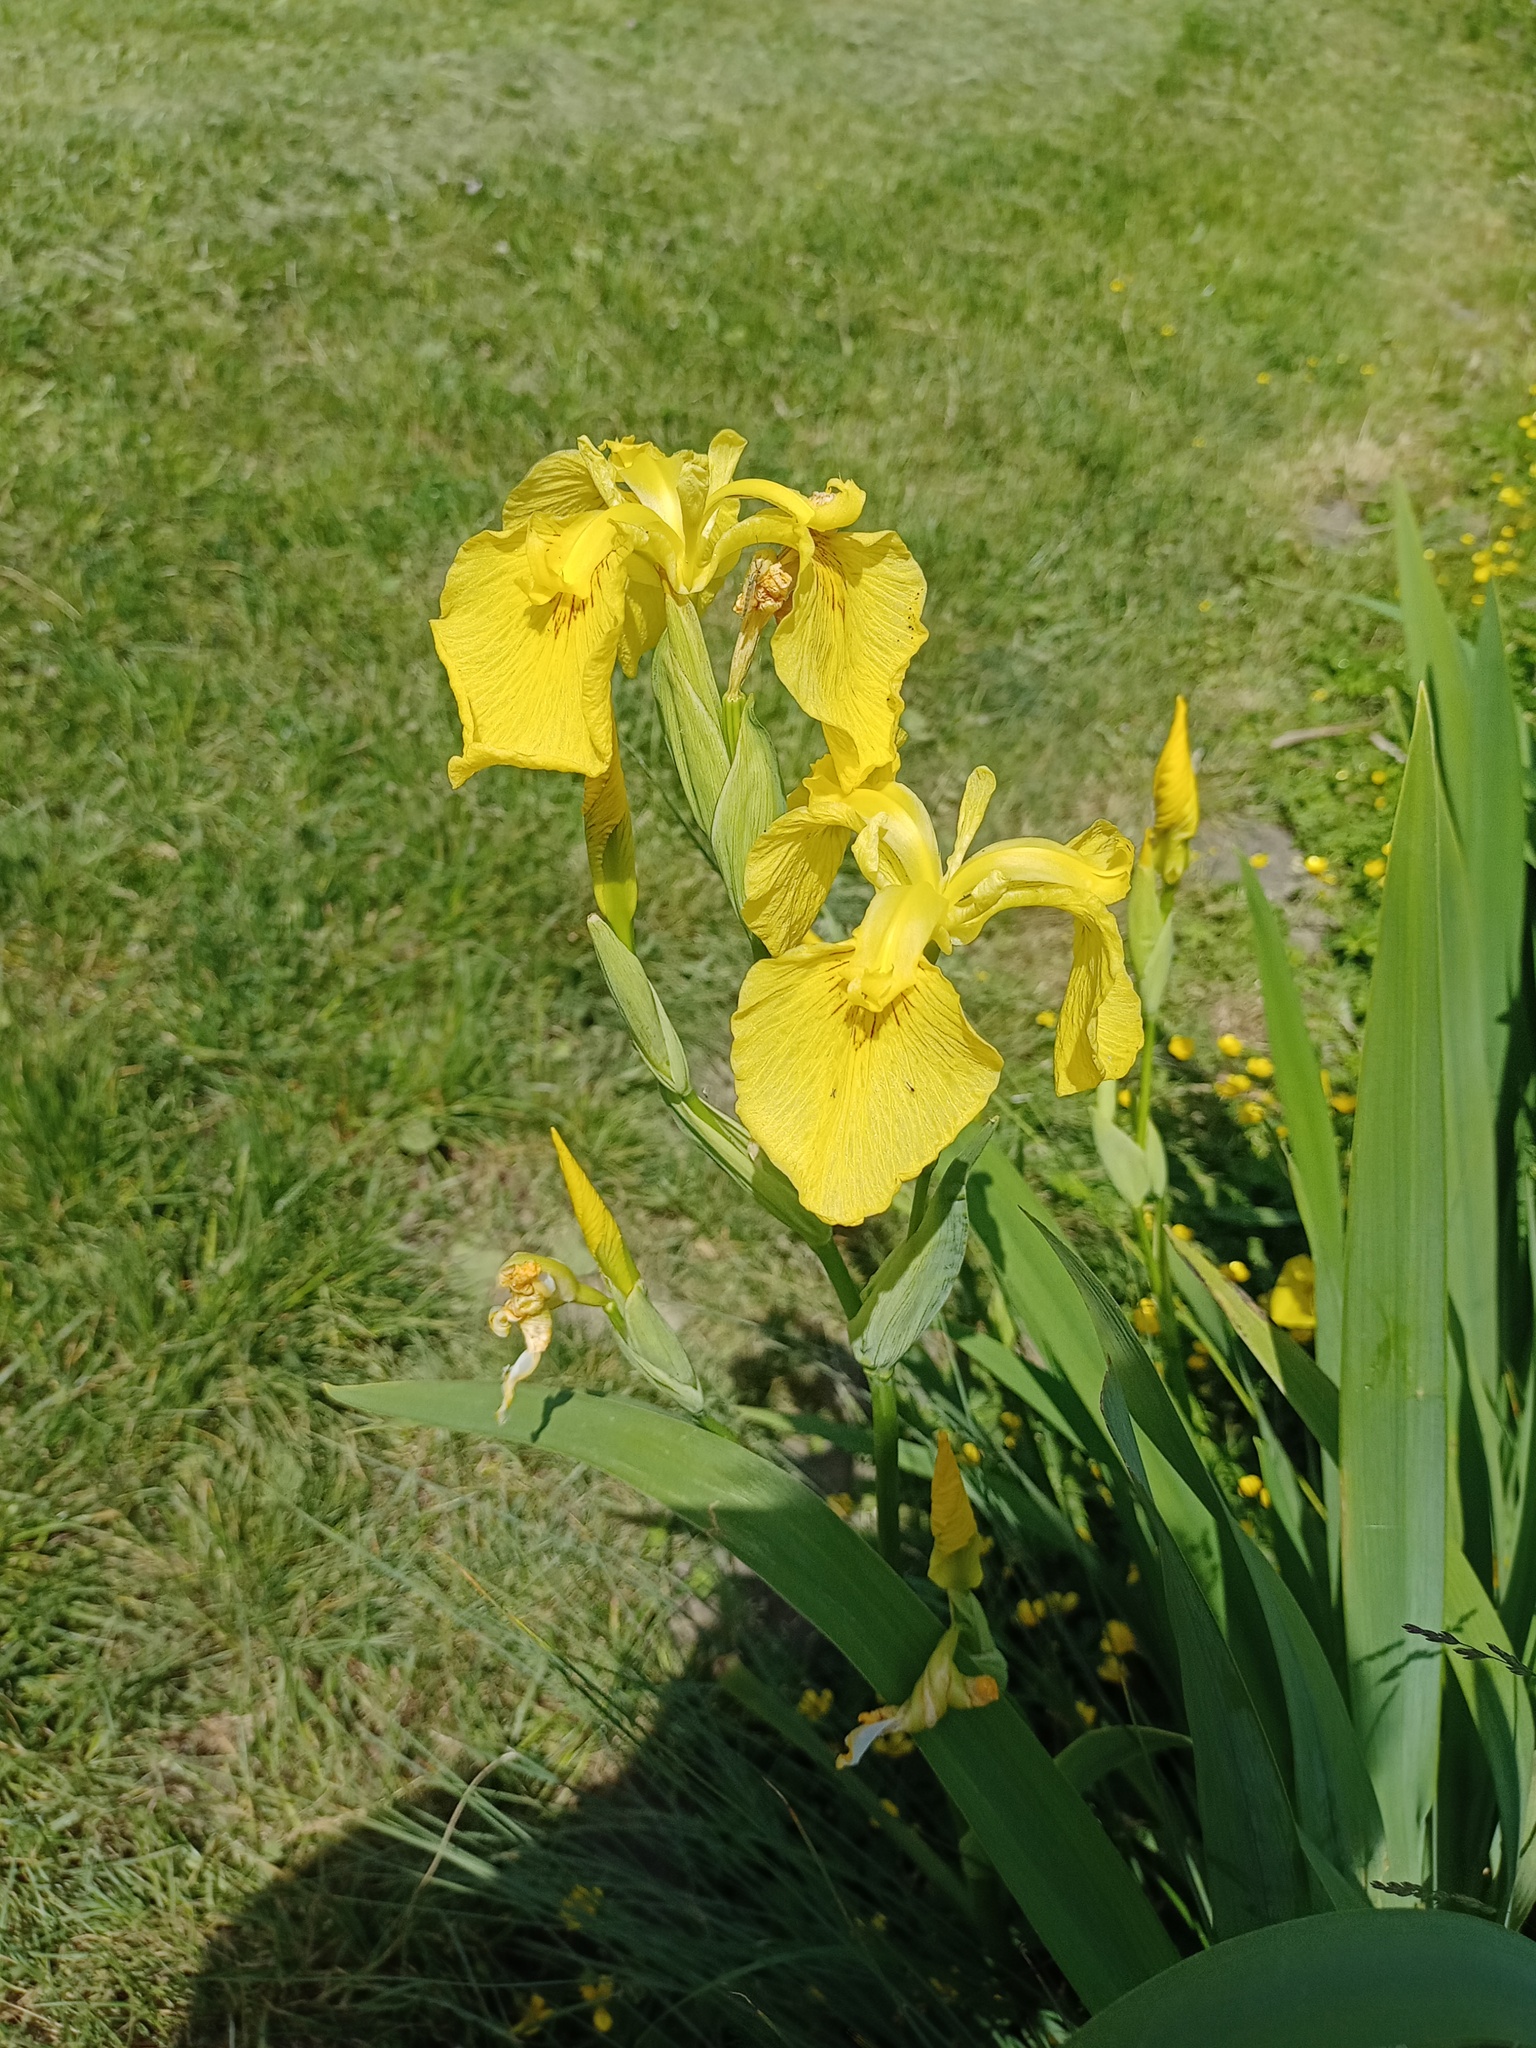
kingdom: Plantae
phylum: Tracheophyta
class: Liliopsida
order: Asparagales
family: Iridaceae
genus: Iris
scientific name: Iris pseudacorus
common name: Yellow flag
